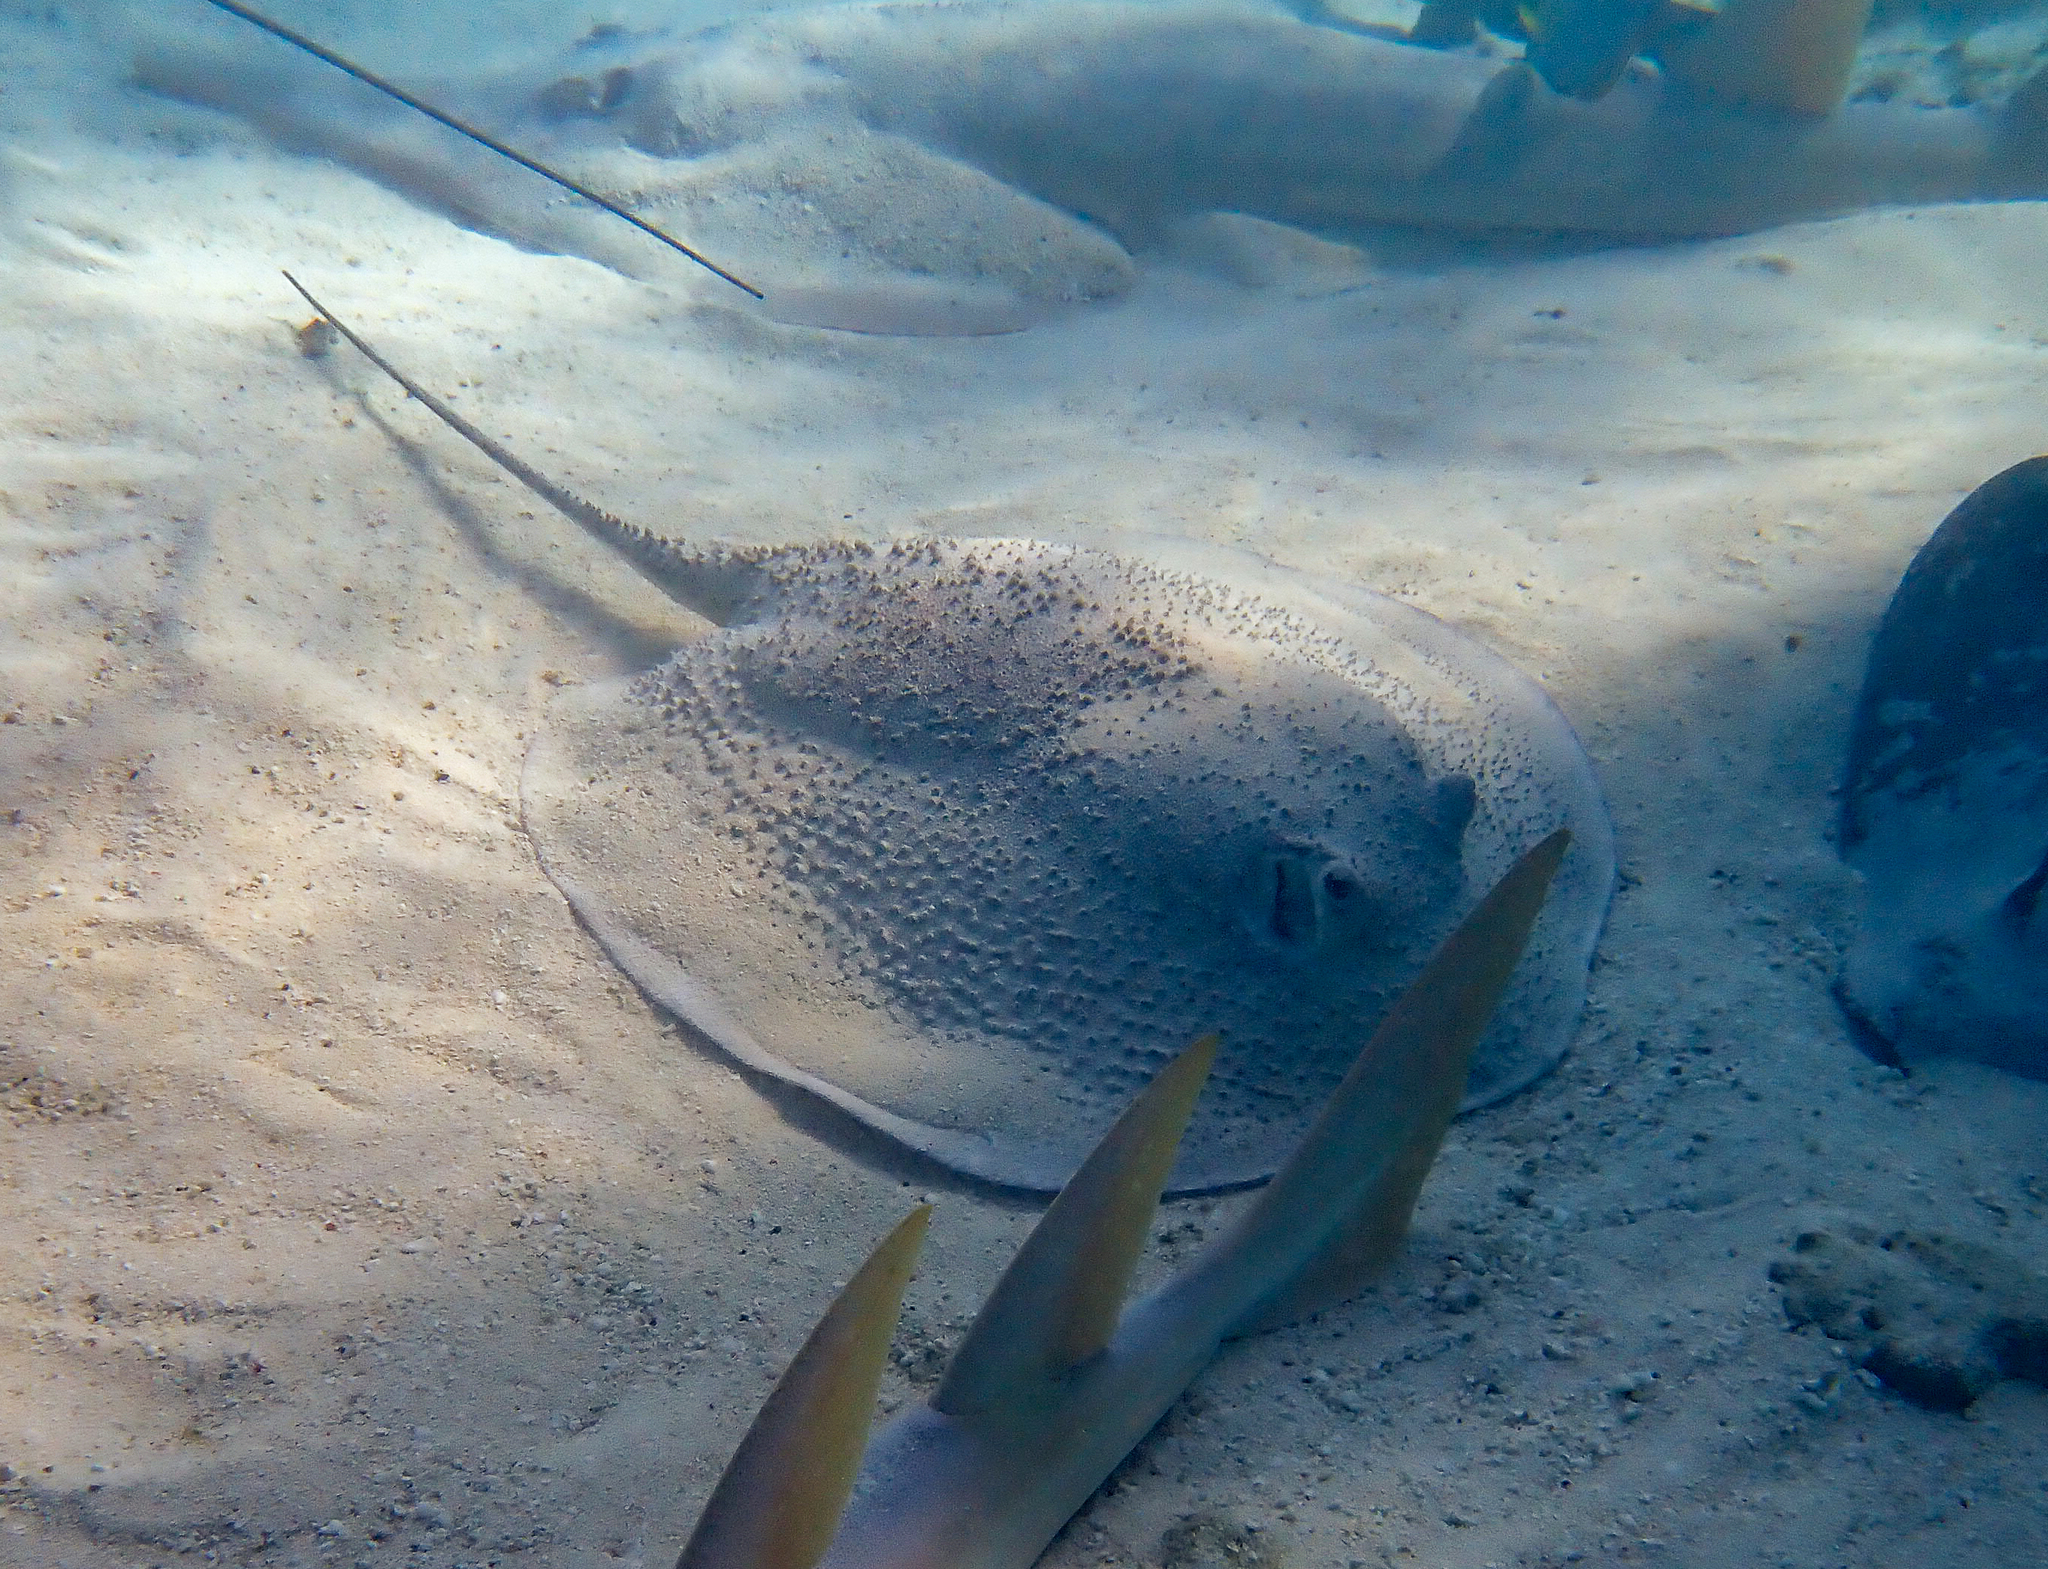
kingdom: Animalia
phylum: Chordata
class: Elasmobranchii
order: Myliobatiformes
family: Dasyatidae
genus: Urogymnus
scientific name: Urogymnus asperrimus
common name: Porcupine ray
